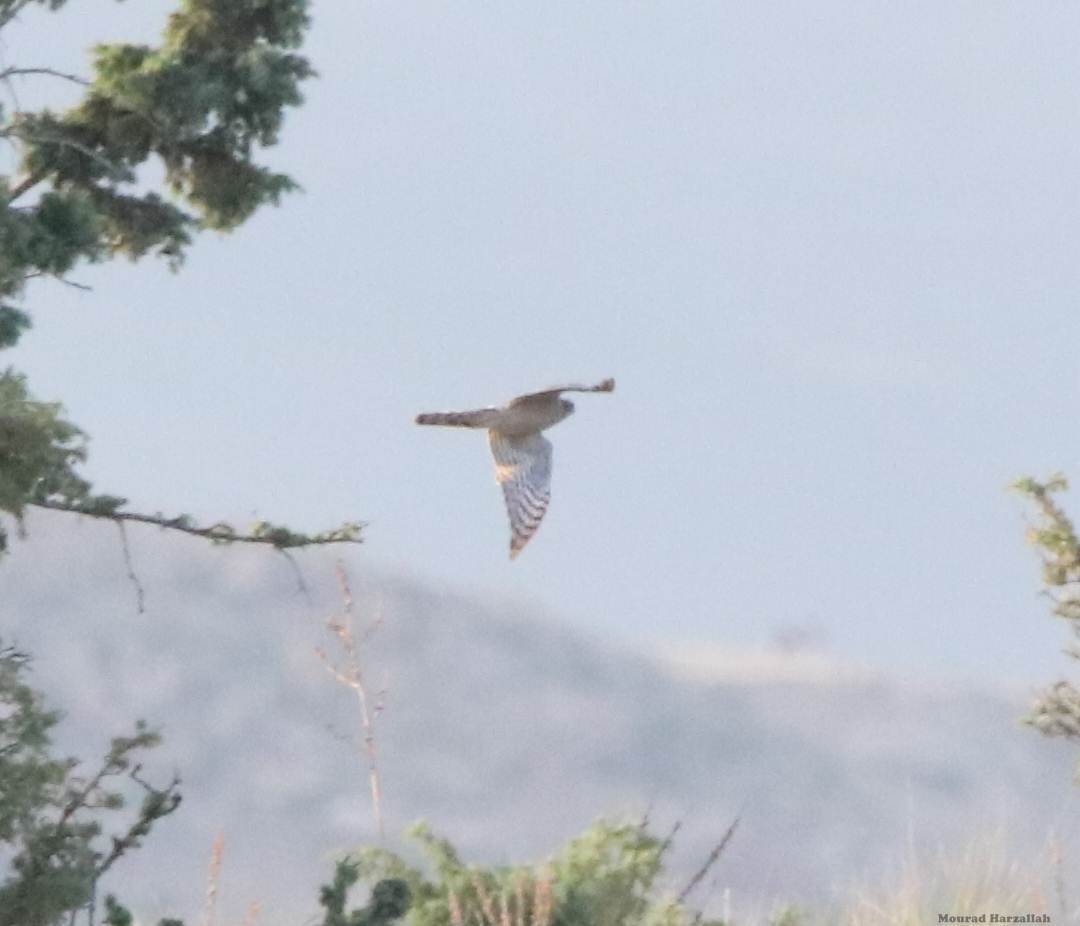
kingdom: Animalia
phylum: Chordata
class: Aves
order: Accipitriformes
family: Accipitridae
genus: Accipiter
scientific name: Accipiter nisus
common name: Eurasian sparrowhawk
